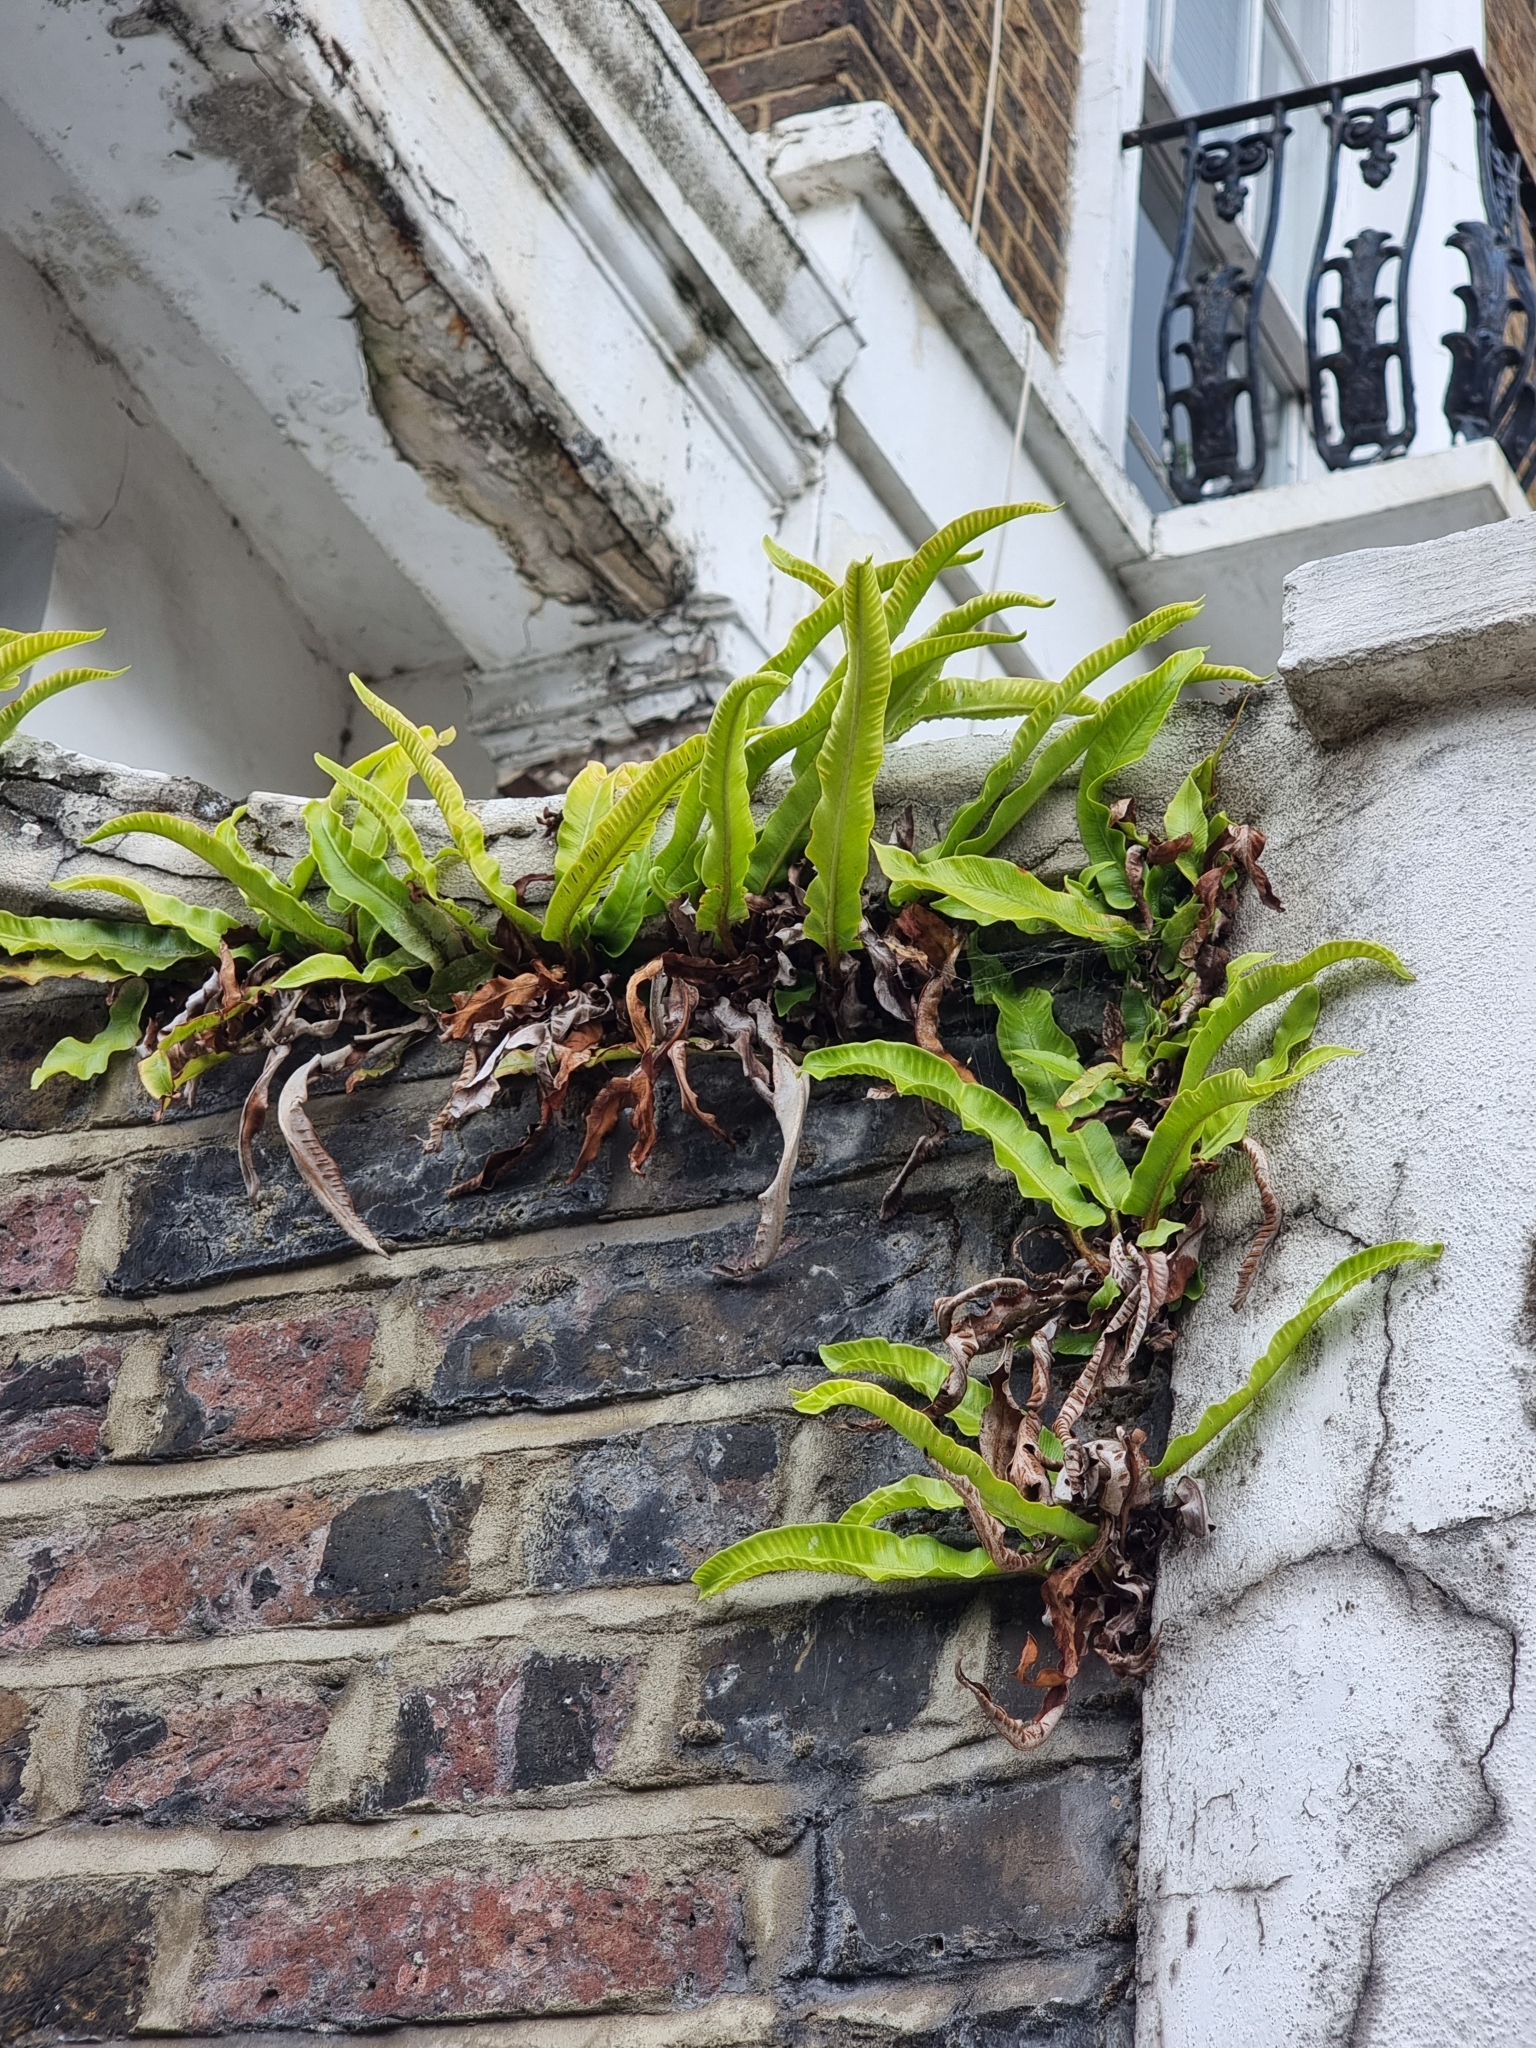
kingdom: Plantae
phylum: Tracheophyta
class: Polypodiopsida
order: Polypodiales
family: Aspleniaceae
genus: Asplenium
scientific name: Asplenium scolopendrium
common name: Hart's-tongue fern
